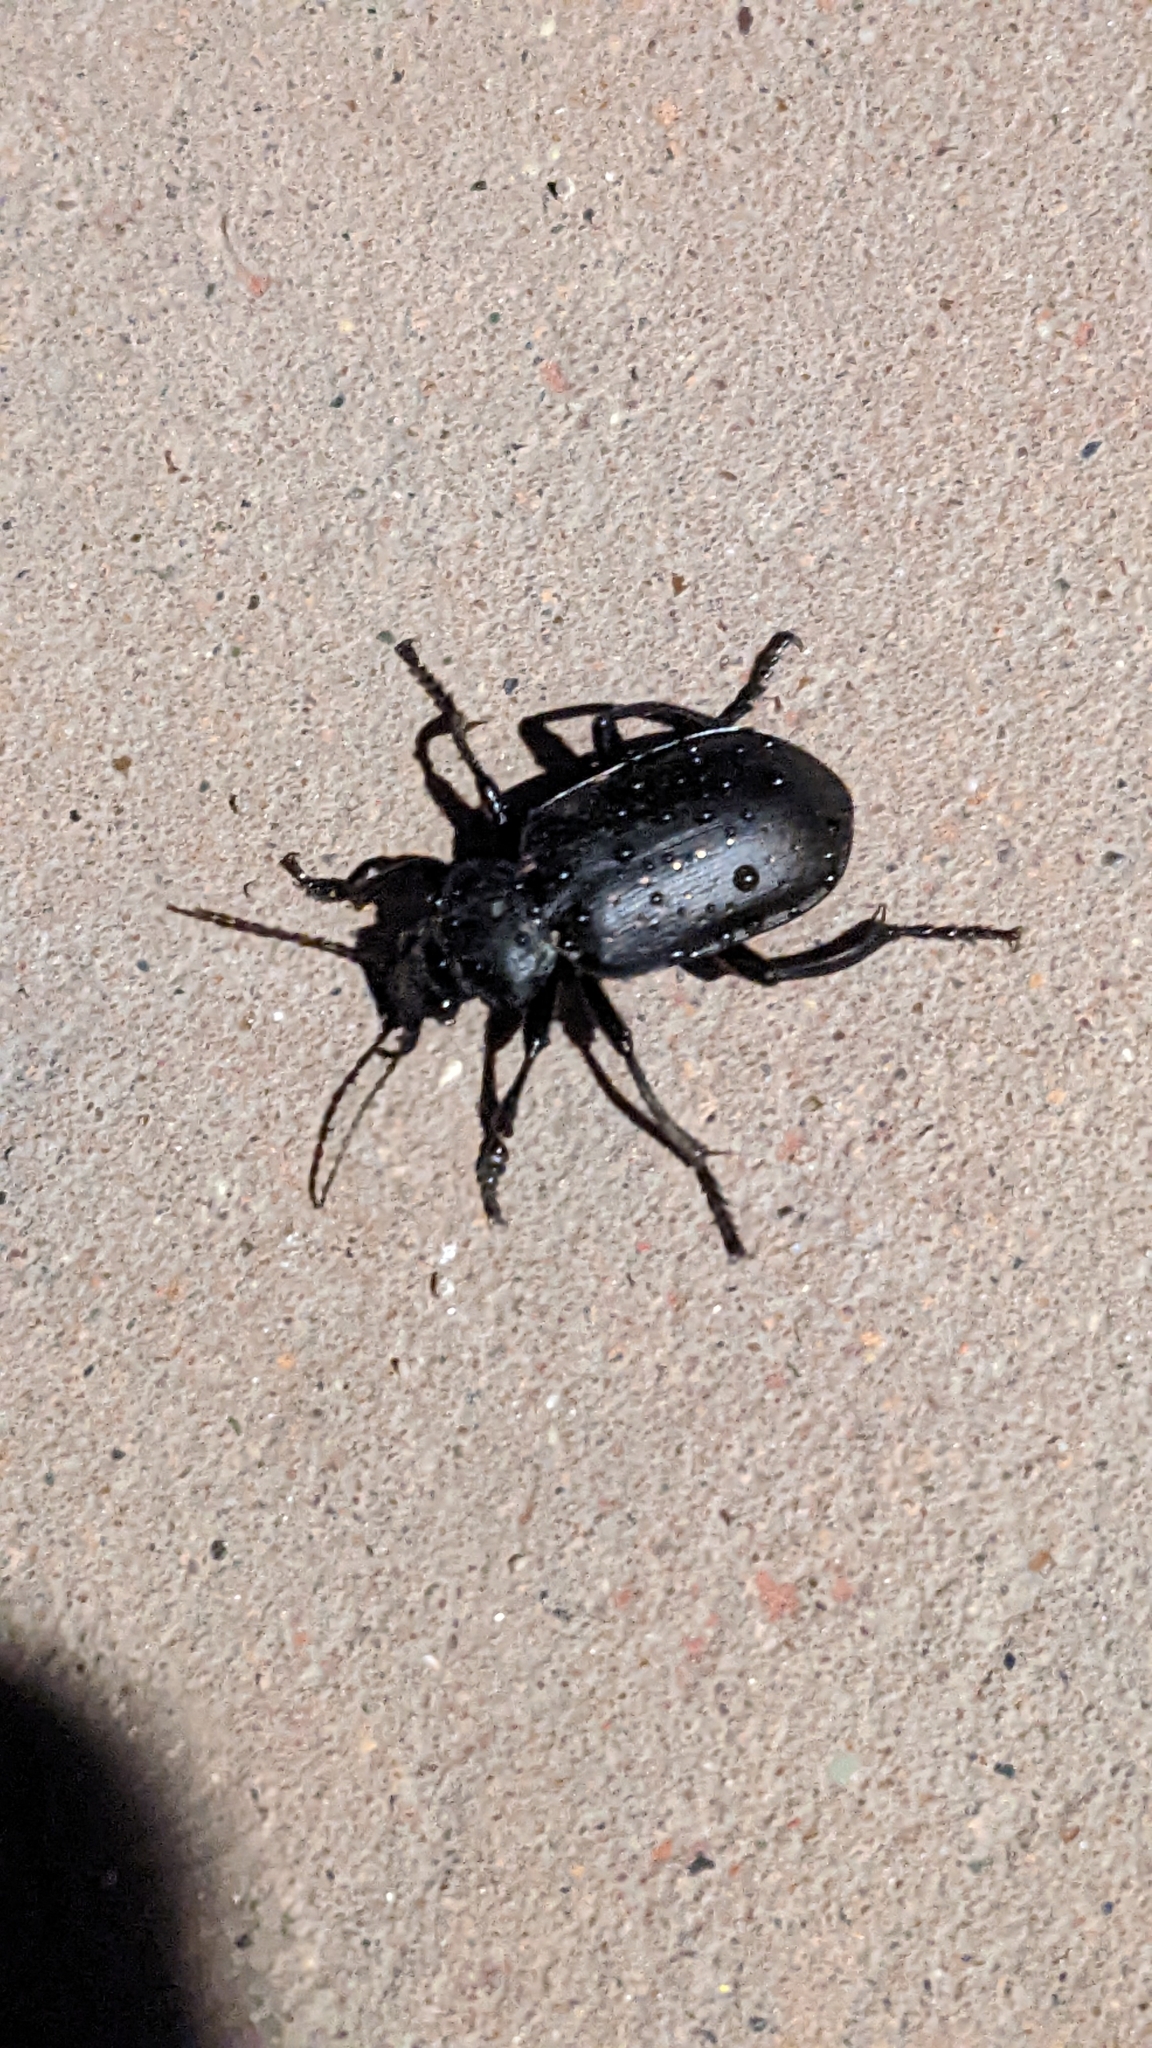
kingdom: Animalia
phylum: Arthropoda
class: Insecta
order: Coleoptera
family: Carabidae
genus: Calosoma
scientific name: Calosoma maderae
